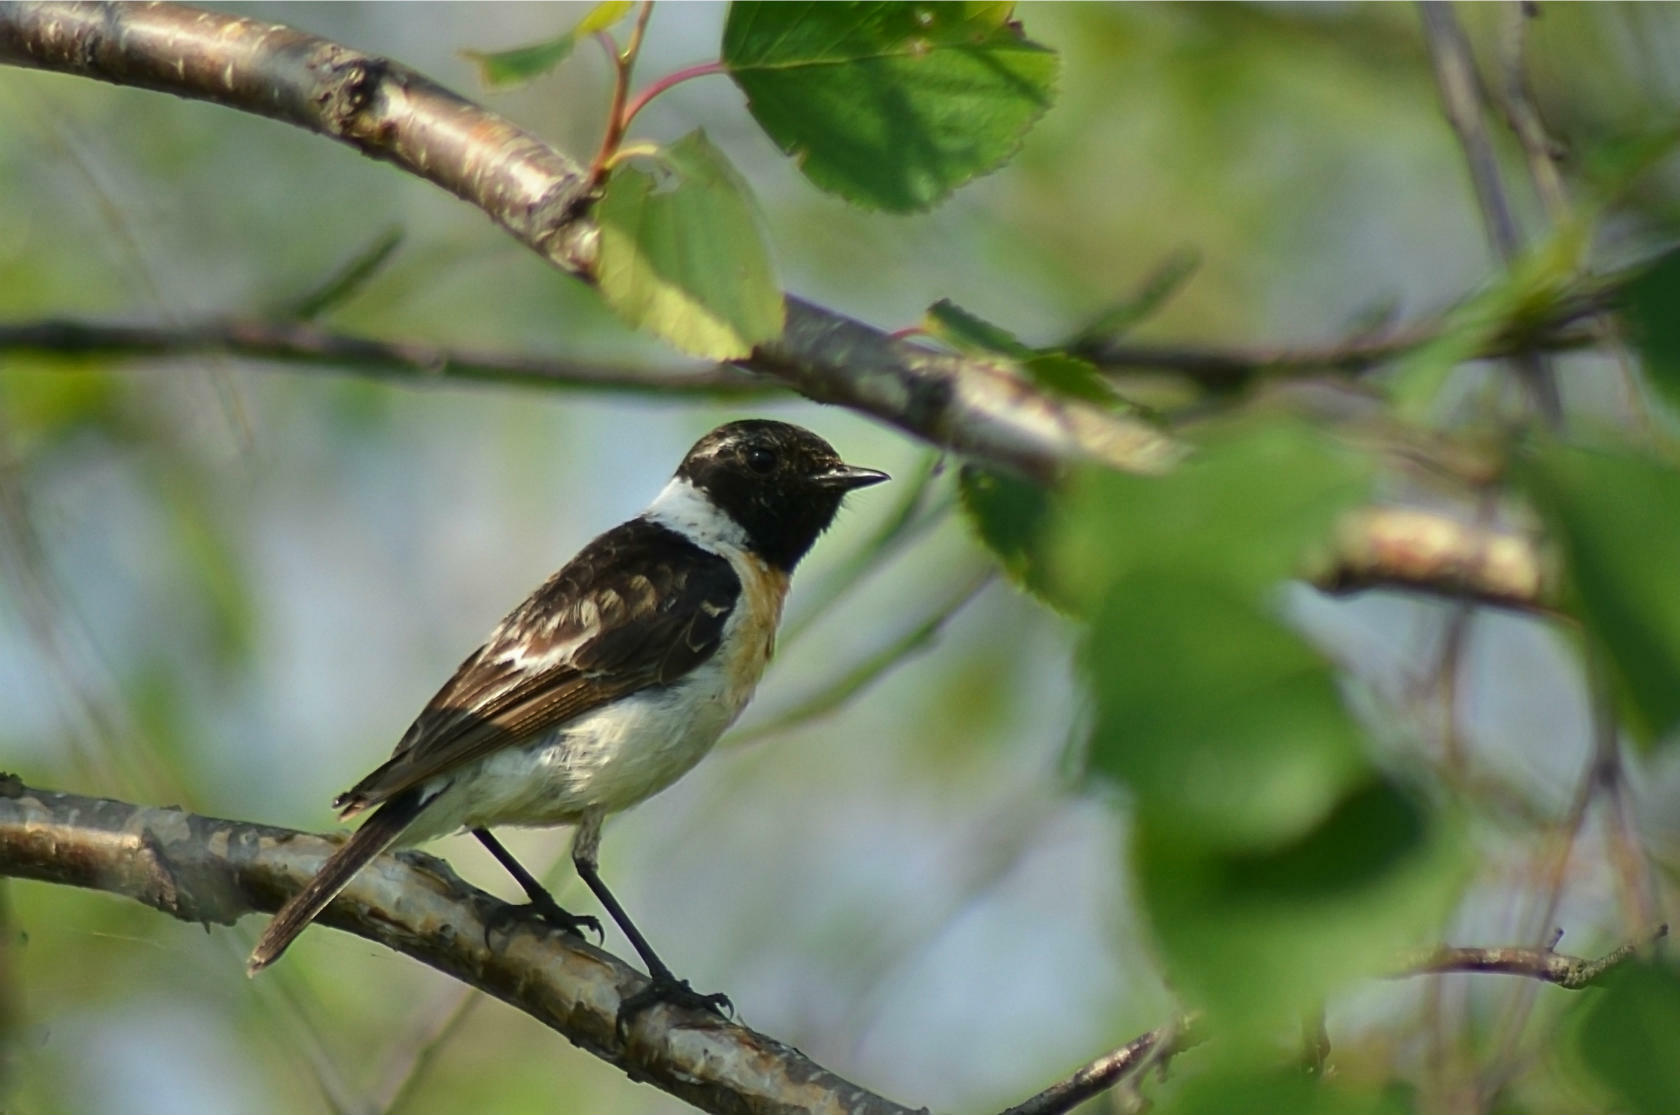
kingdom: Animalia
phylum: Chordata
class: Aves
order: Passeriformes
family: Muscicapidae
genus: Saxicola
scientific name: Saxicola maurus
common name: Siberian stonechat
